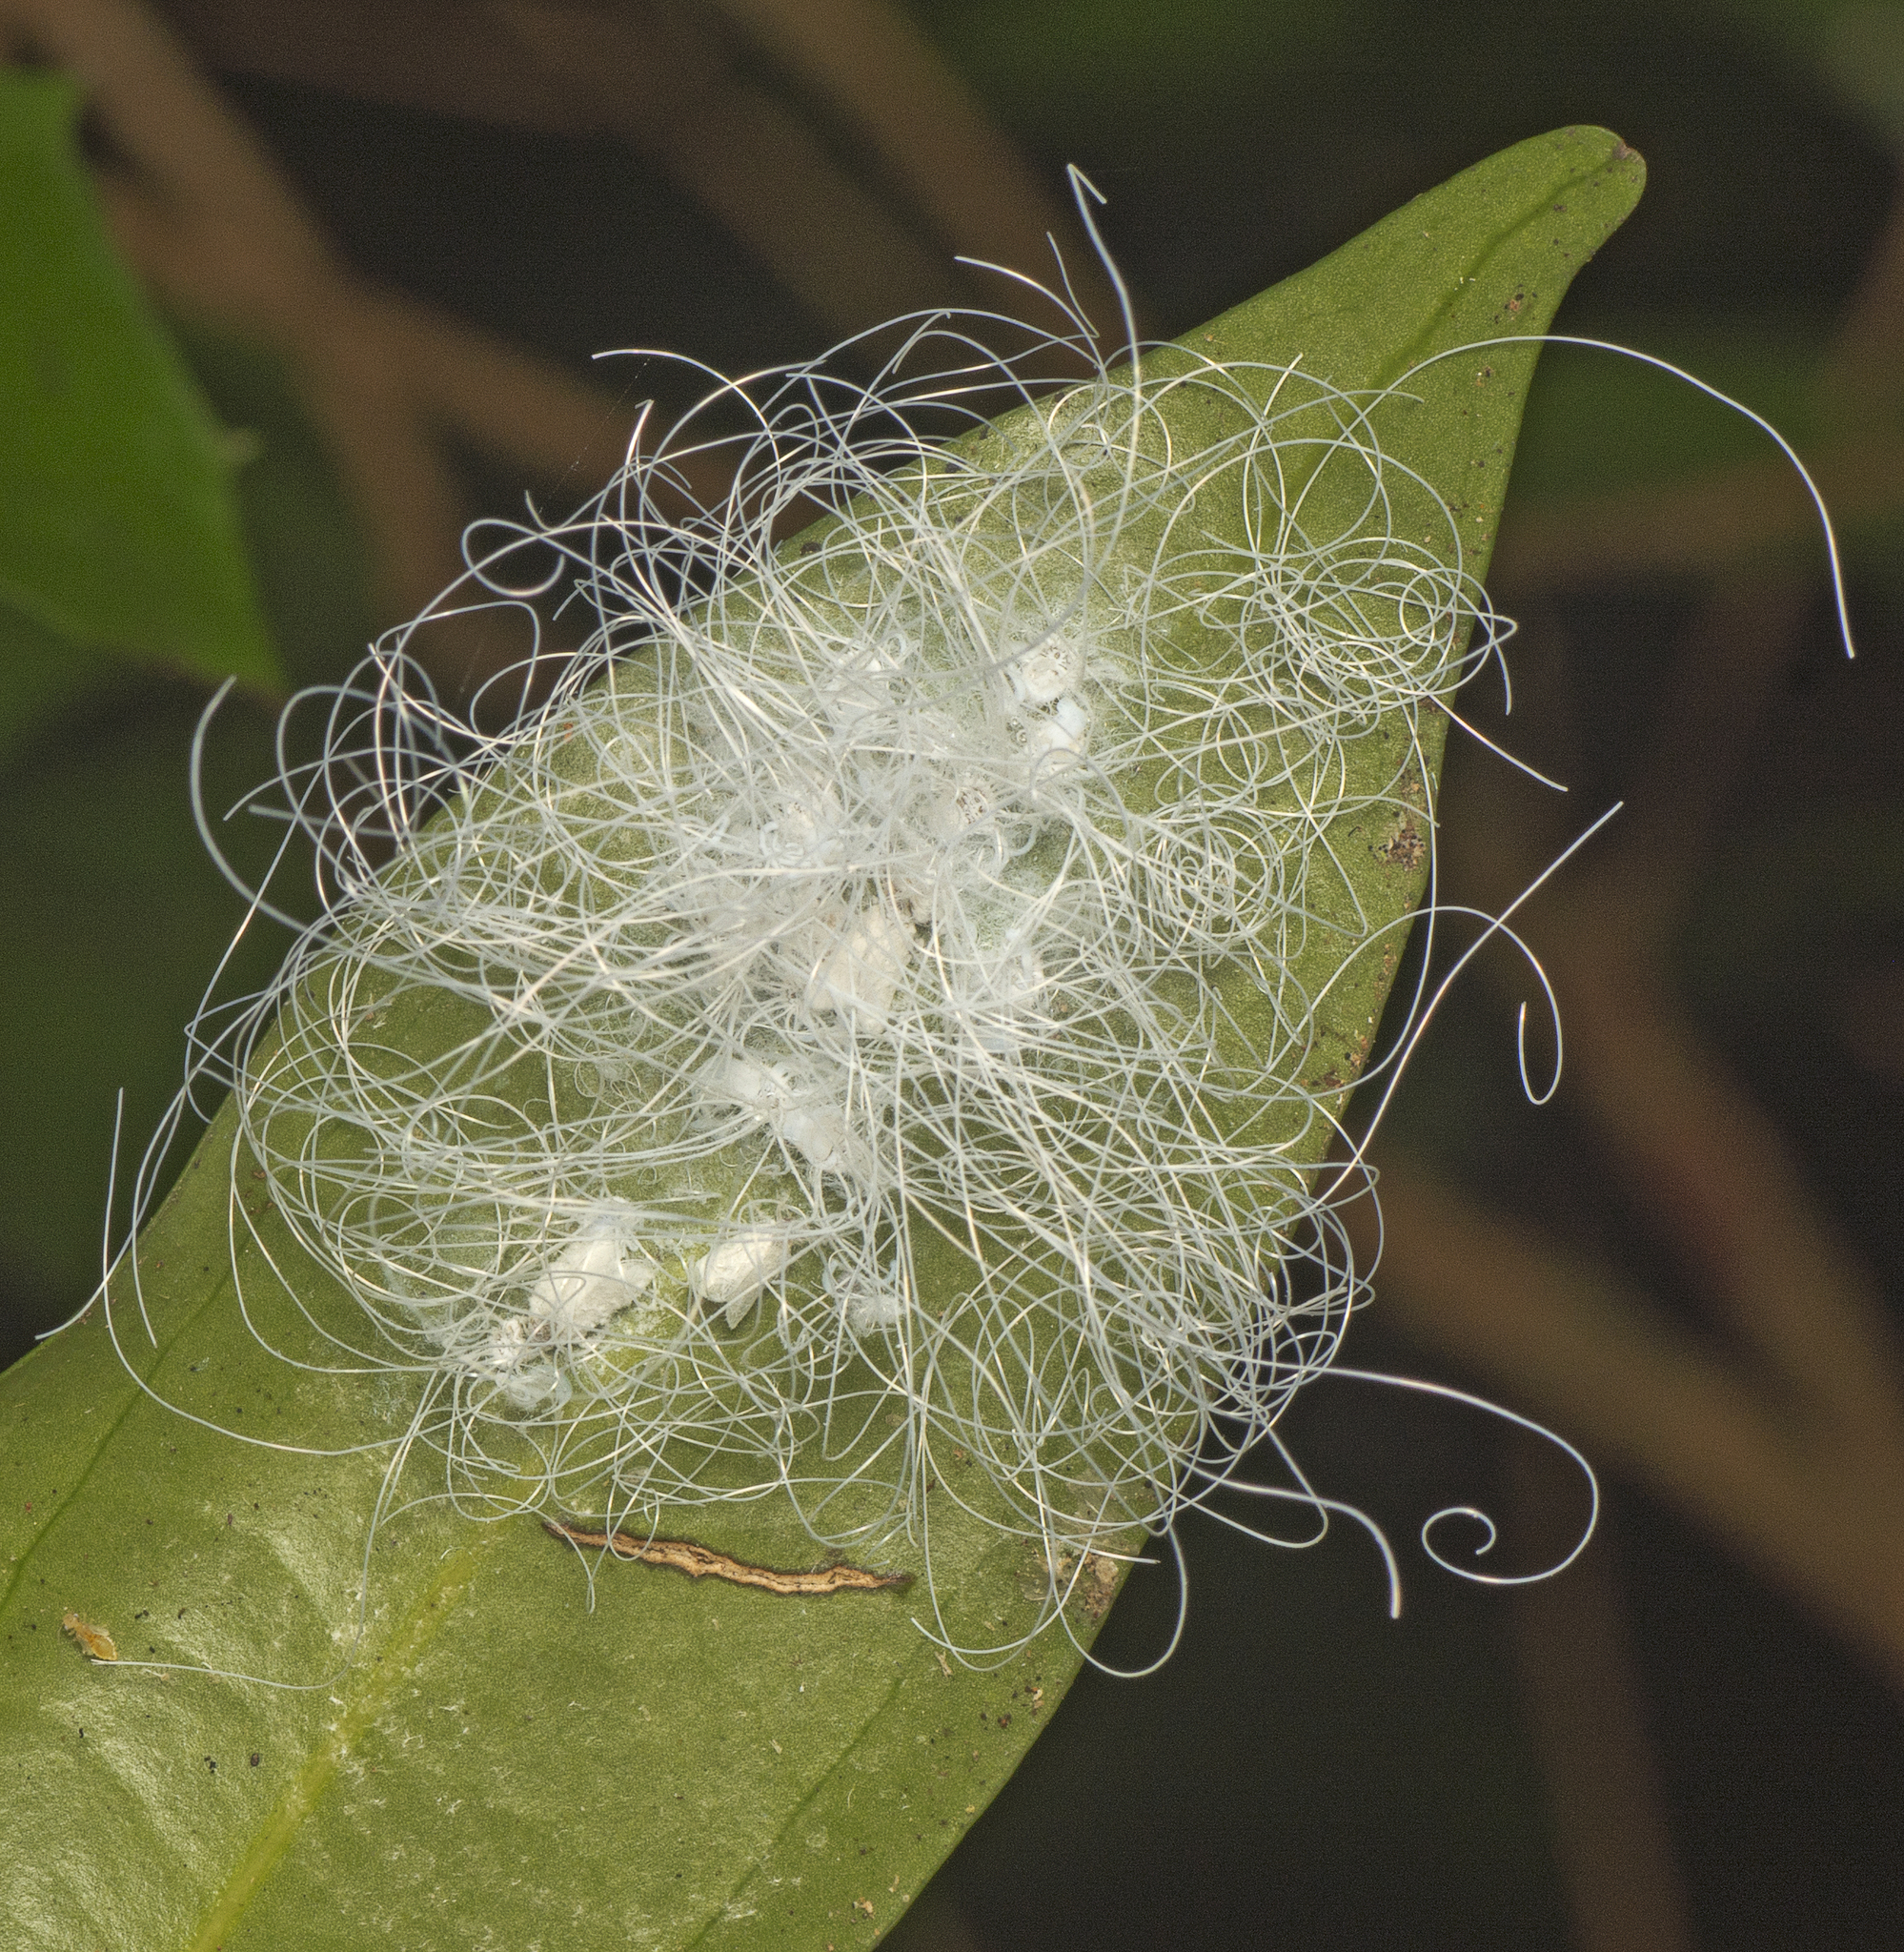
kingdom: Animalia
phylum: Arthropoda
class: Insecta
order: Hemiptera
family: Aleyrodidae
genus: Aleuroctarthrus
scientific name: Aleuroctarthrus
